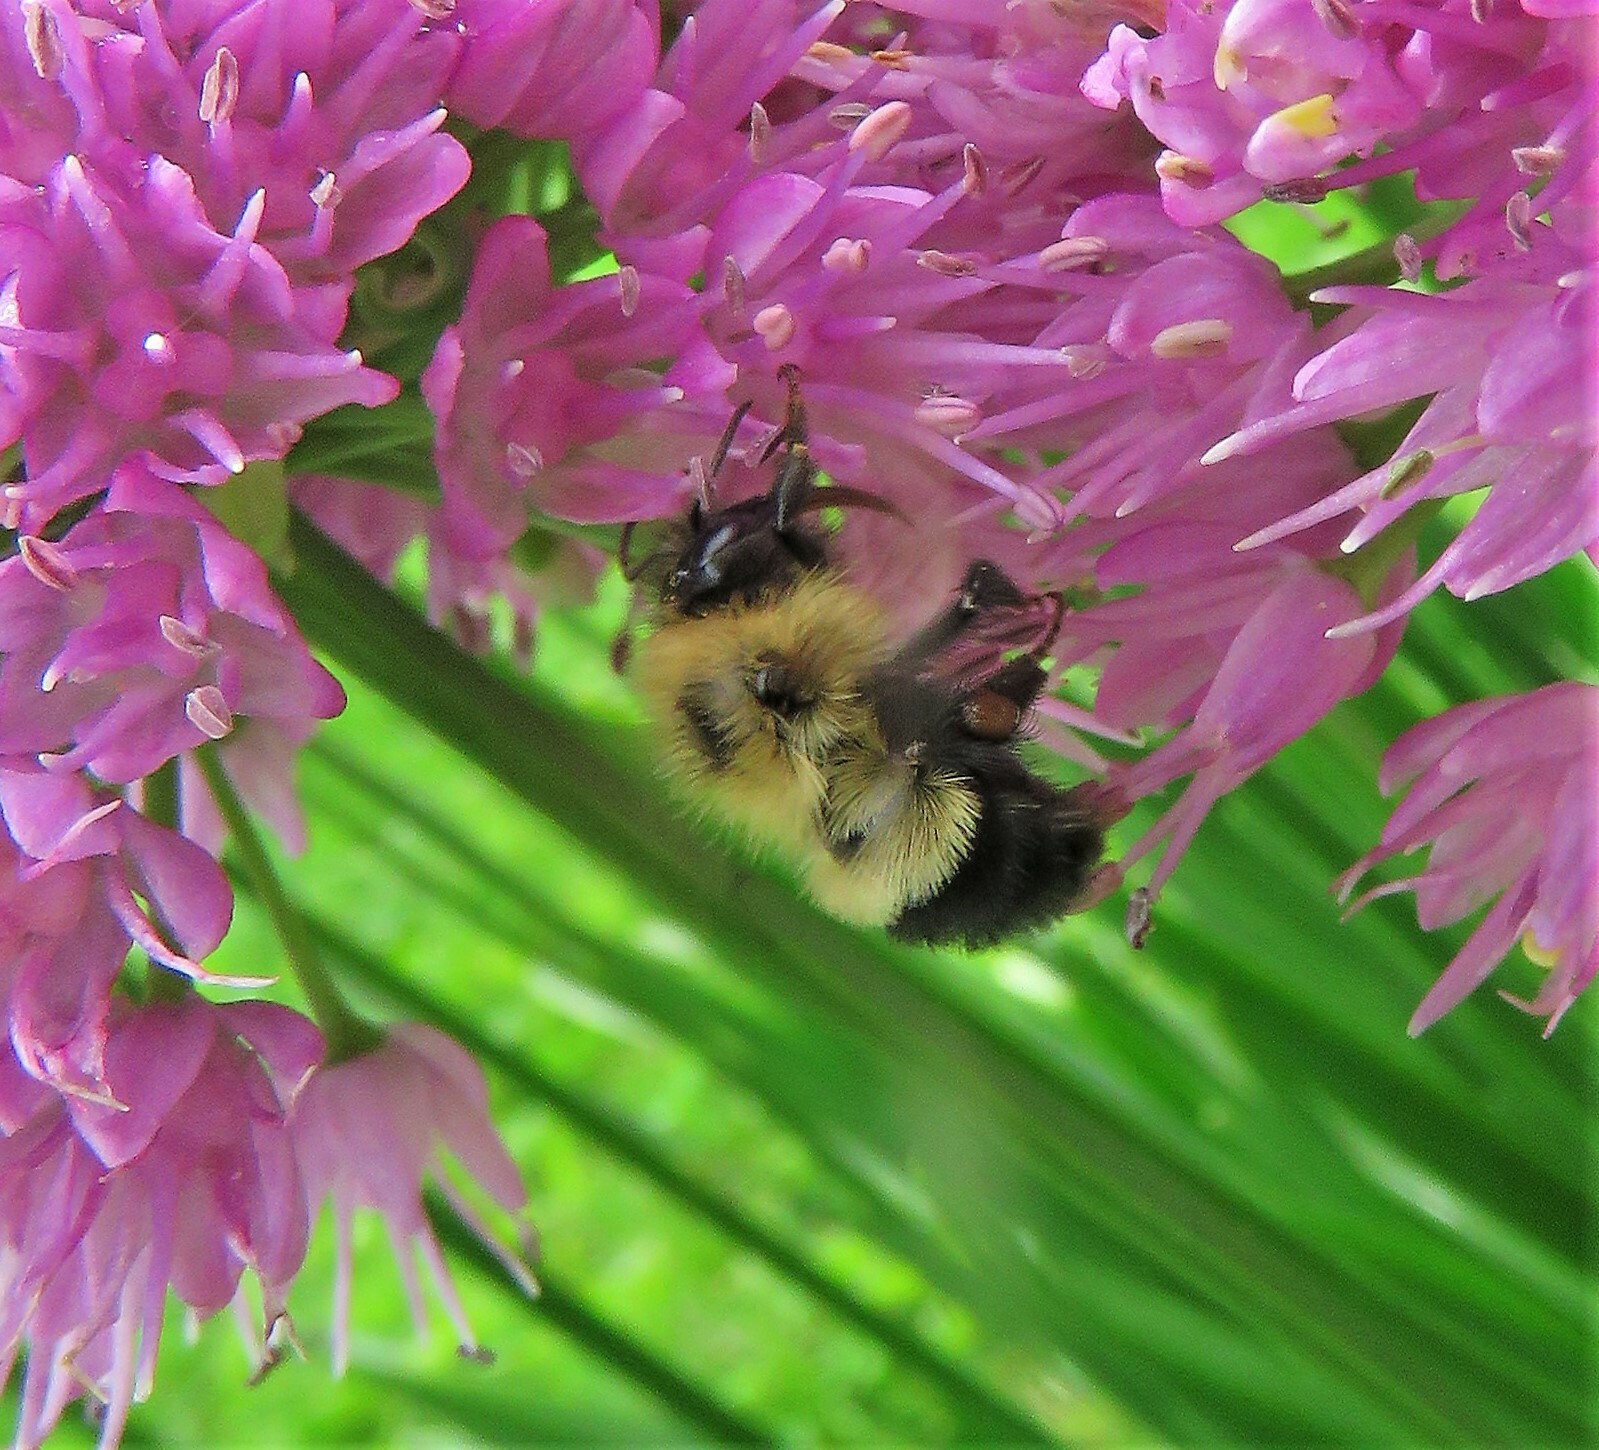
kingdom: Animalia
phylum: Arthropoda
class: Insecta
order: Hymenoptera
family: Apidae
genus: Pyrobombus
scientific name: Pyrobombus
